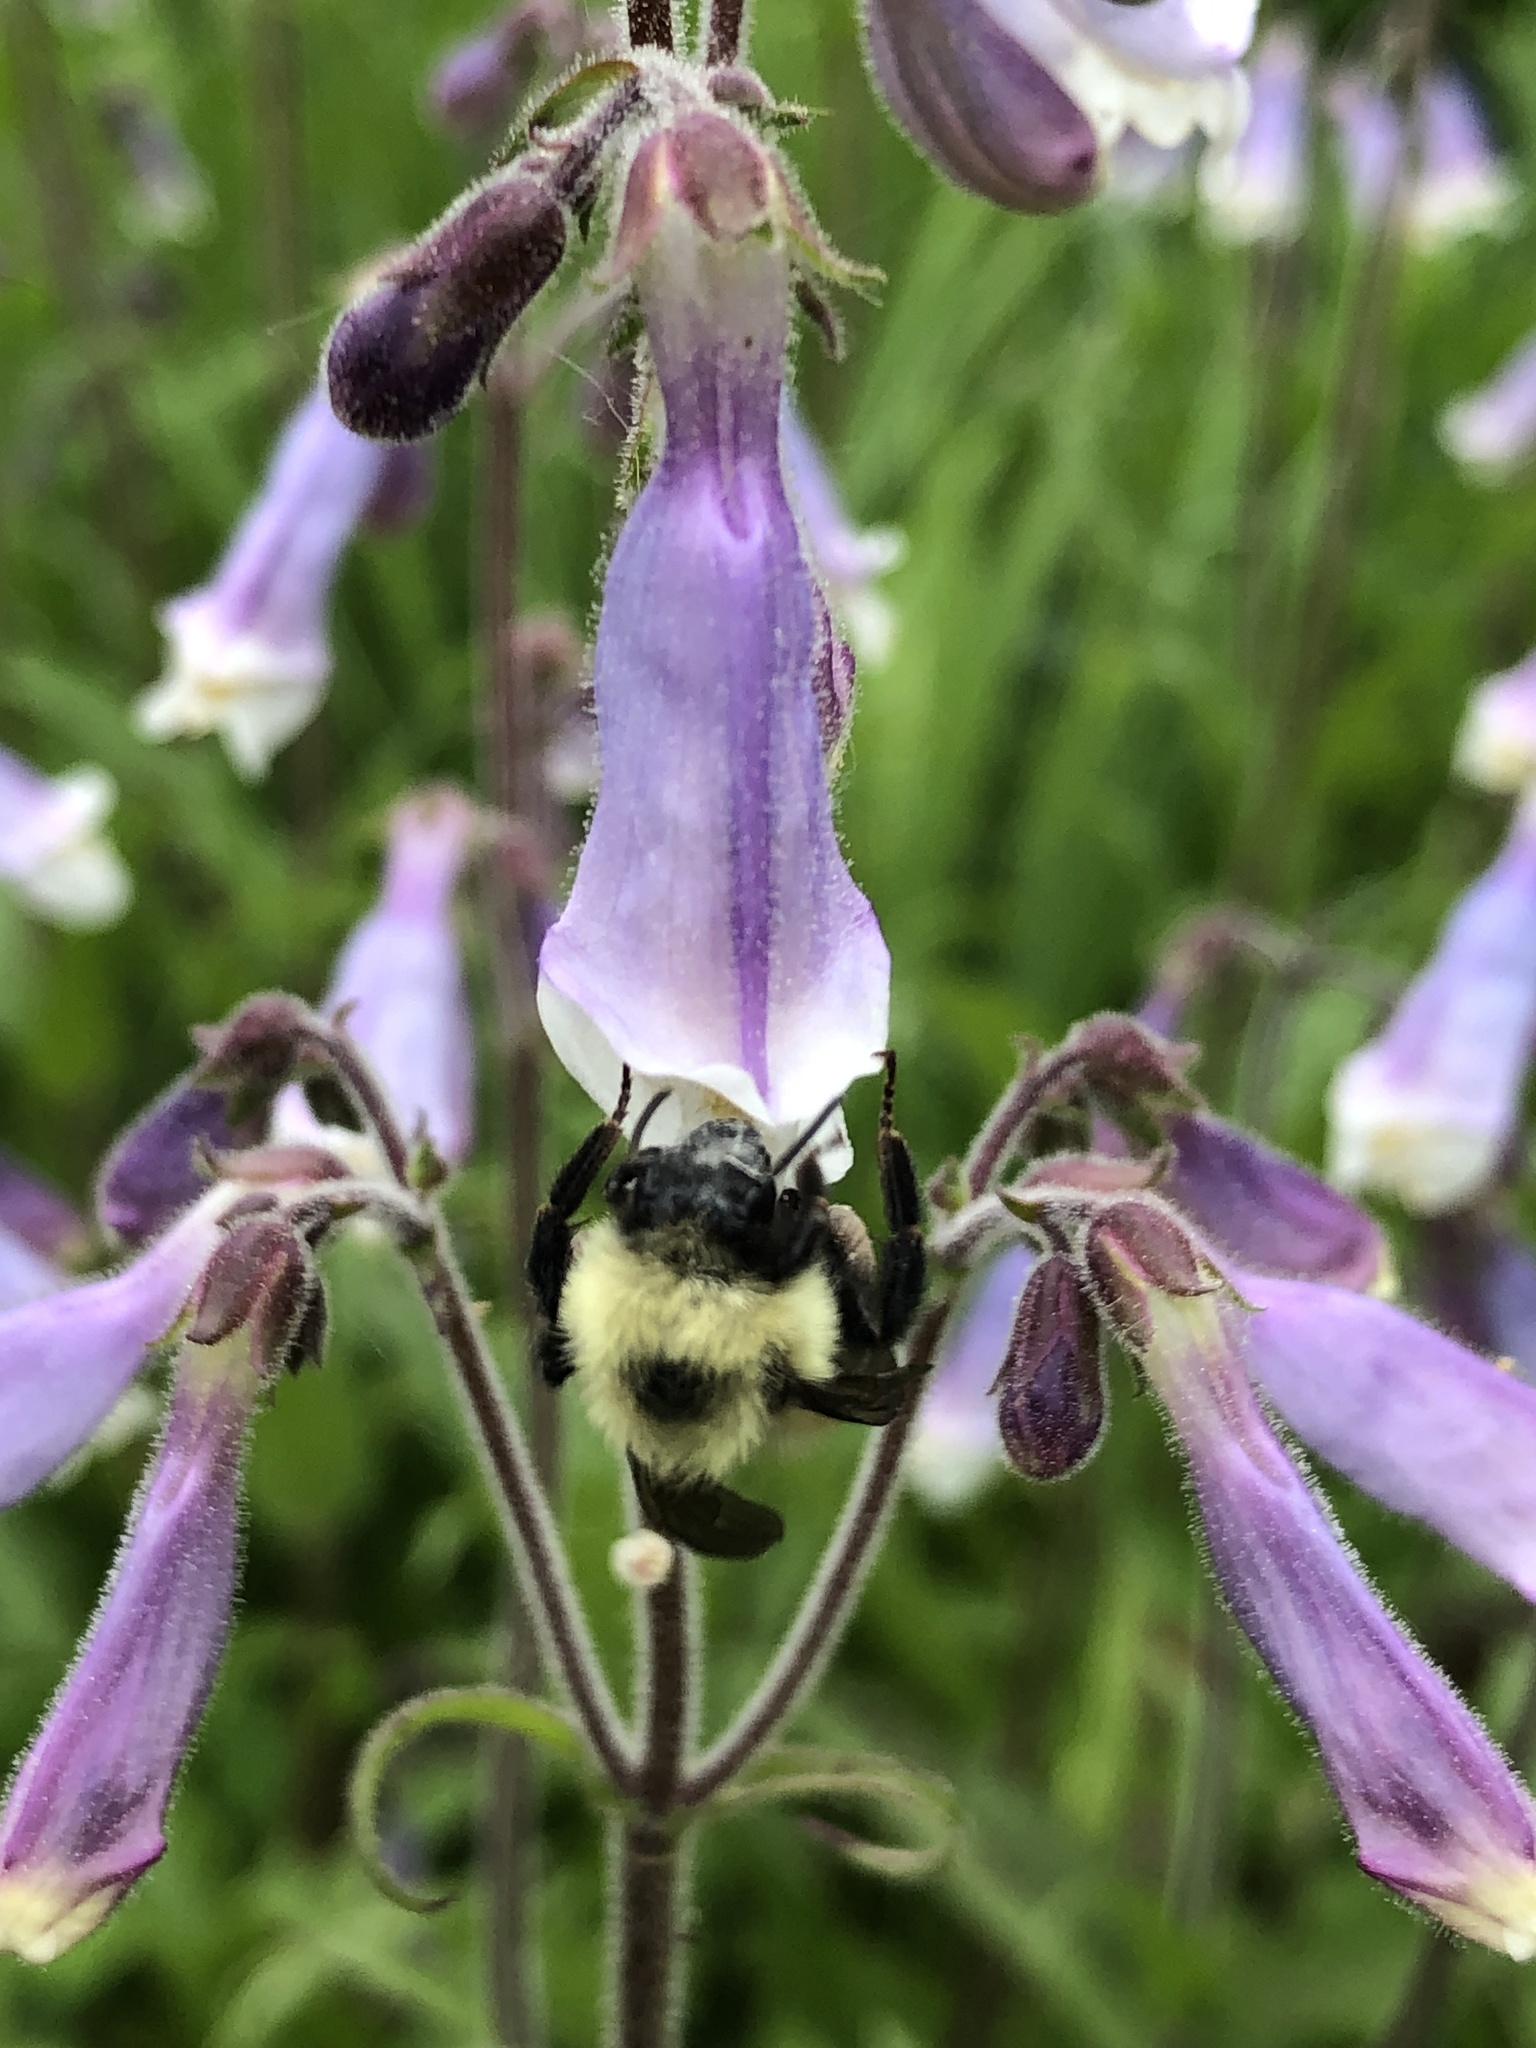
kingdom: Animalia
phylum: Arthropoda
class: Insecta
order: Hymenoptera
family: Apidae
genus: Bombus
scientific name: Bombus bimaculatus
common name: Two-spotted bumble bee
